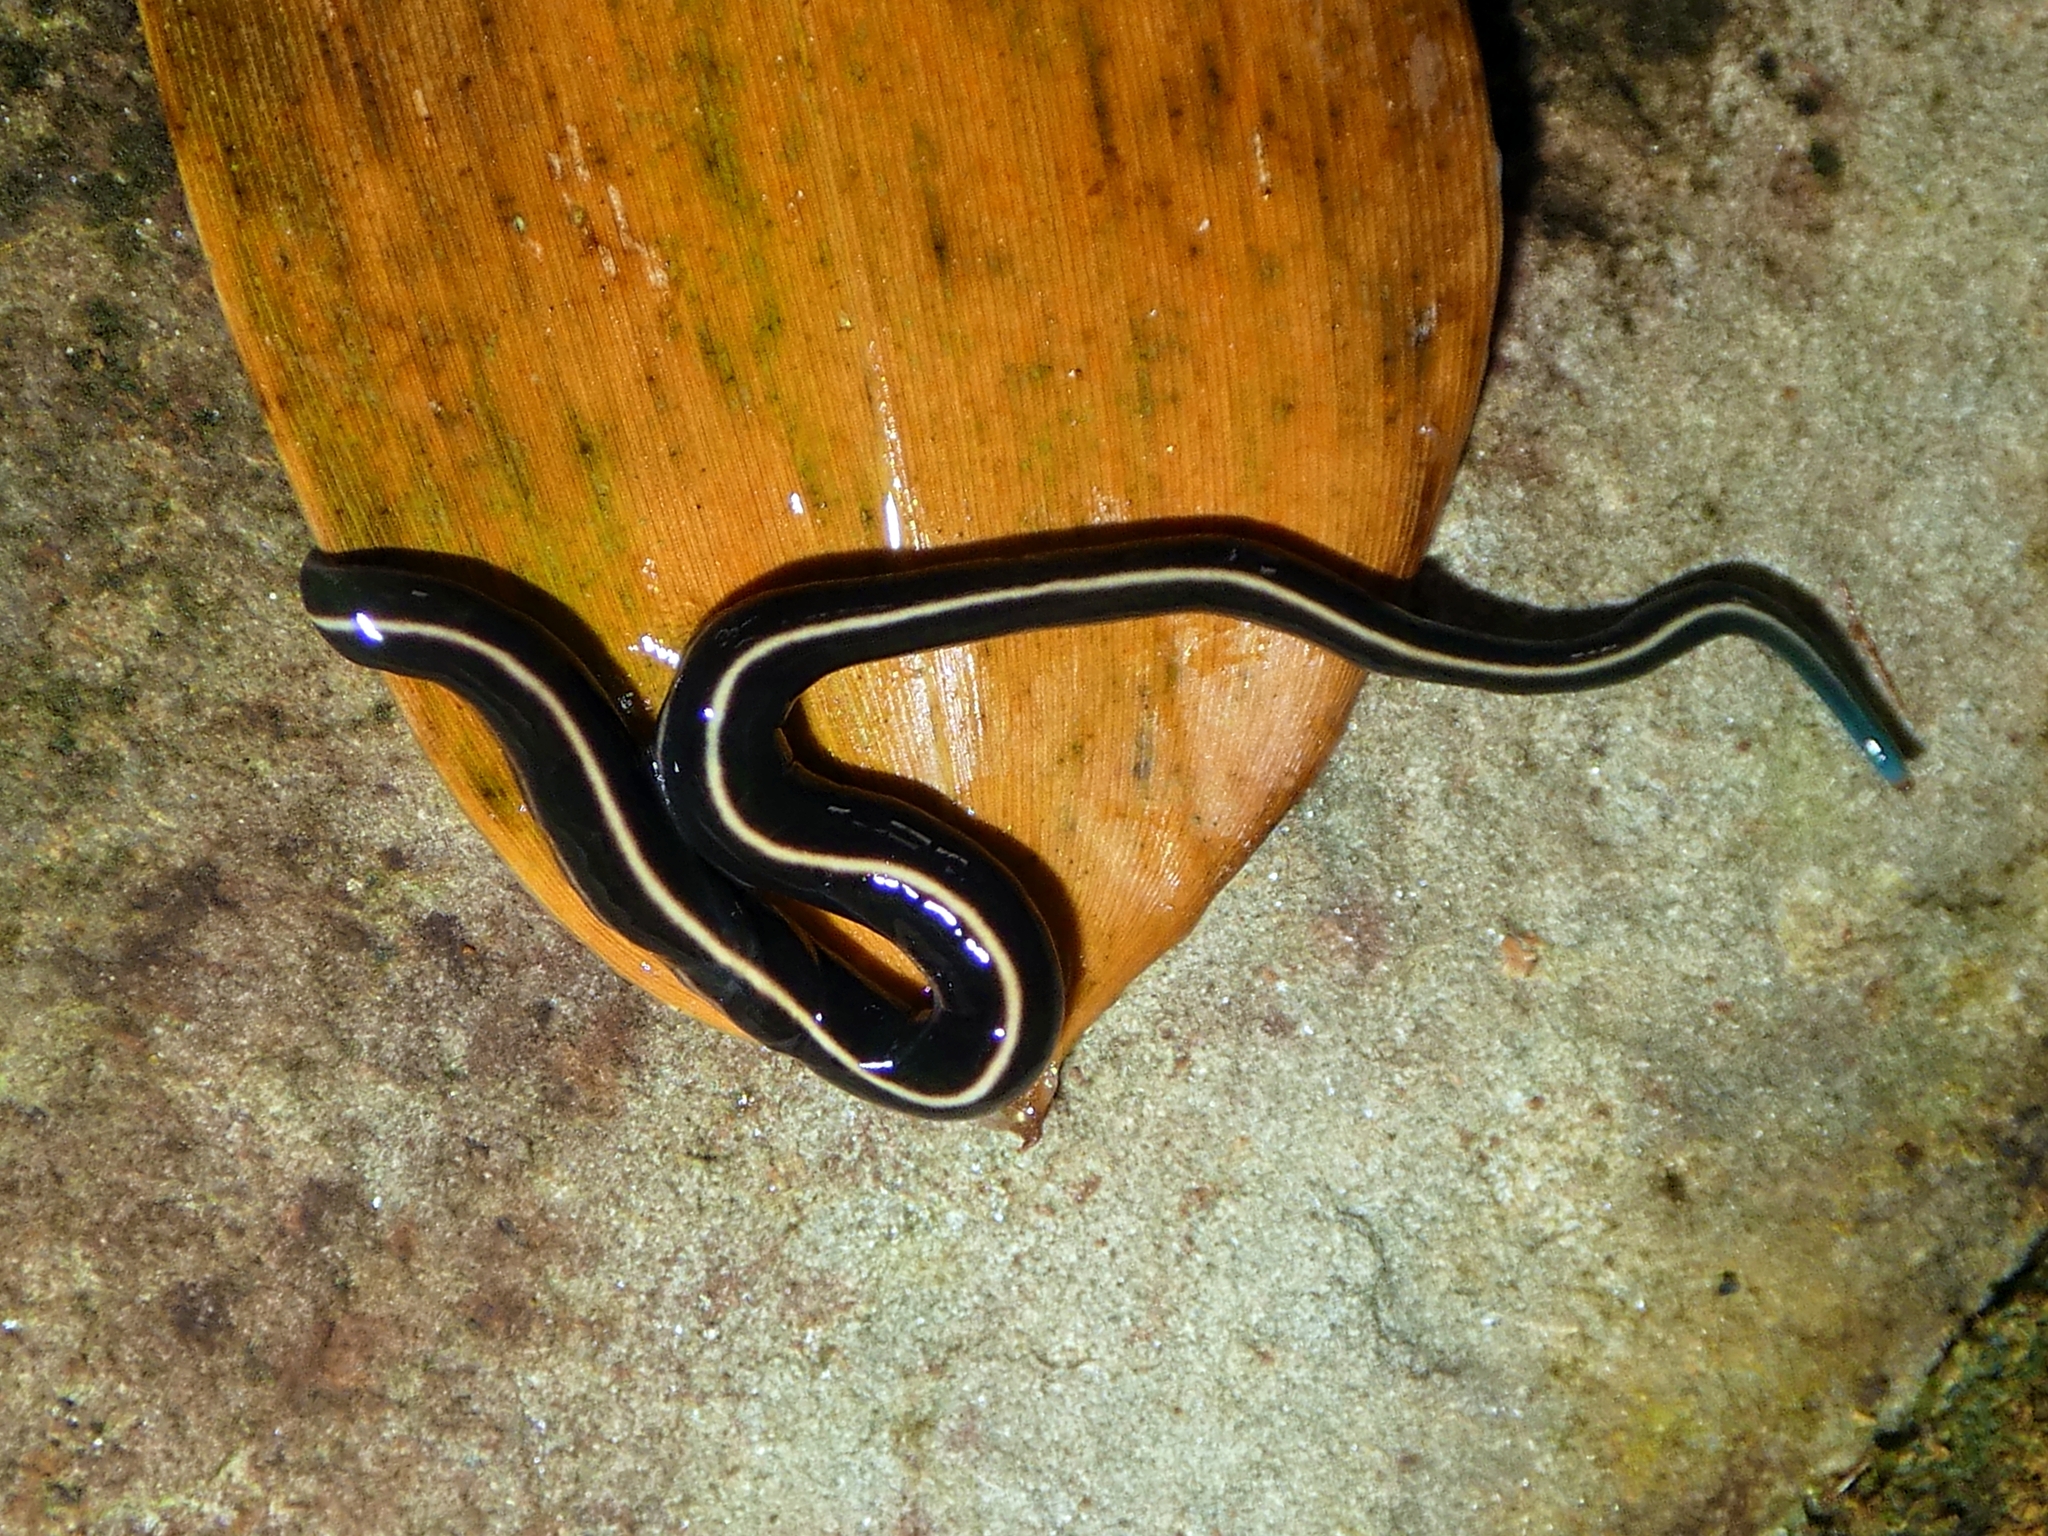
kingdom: Animalia
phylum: Platyhelminthes
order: Tricladida
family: Geoplanidae
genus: Caenoplana
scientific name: Caenoplana coerulea
